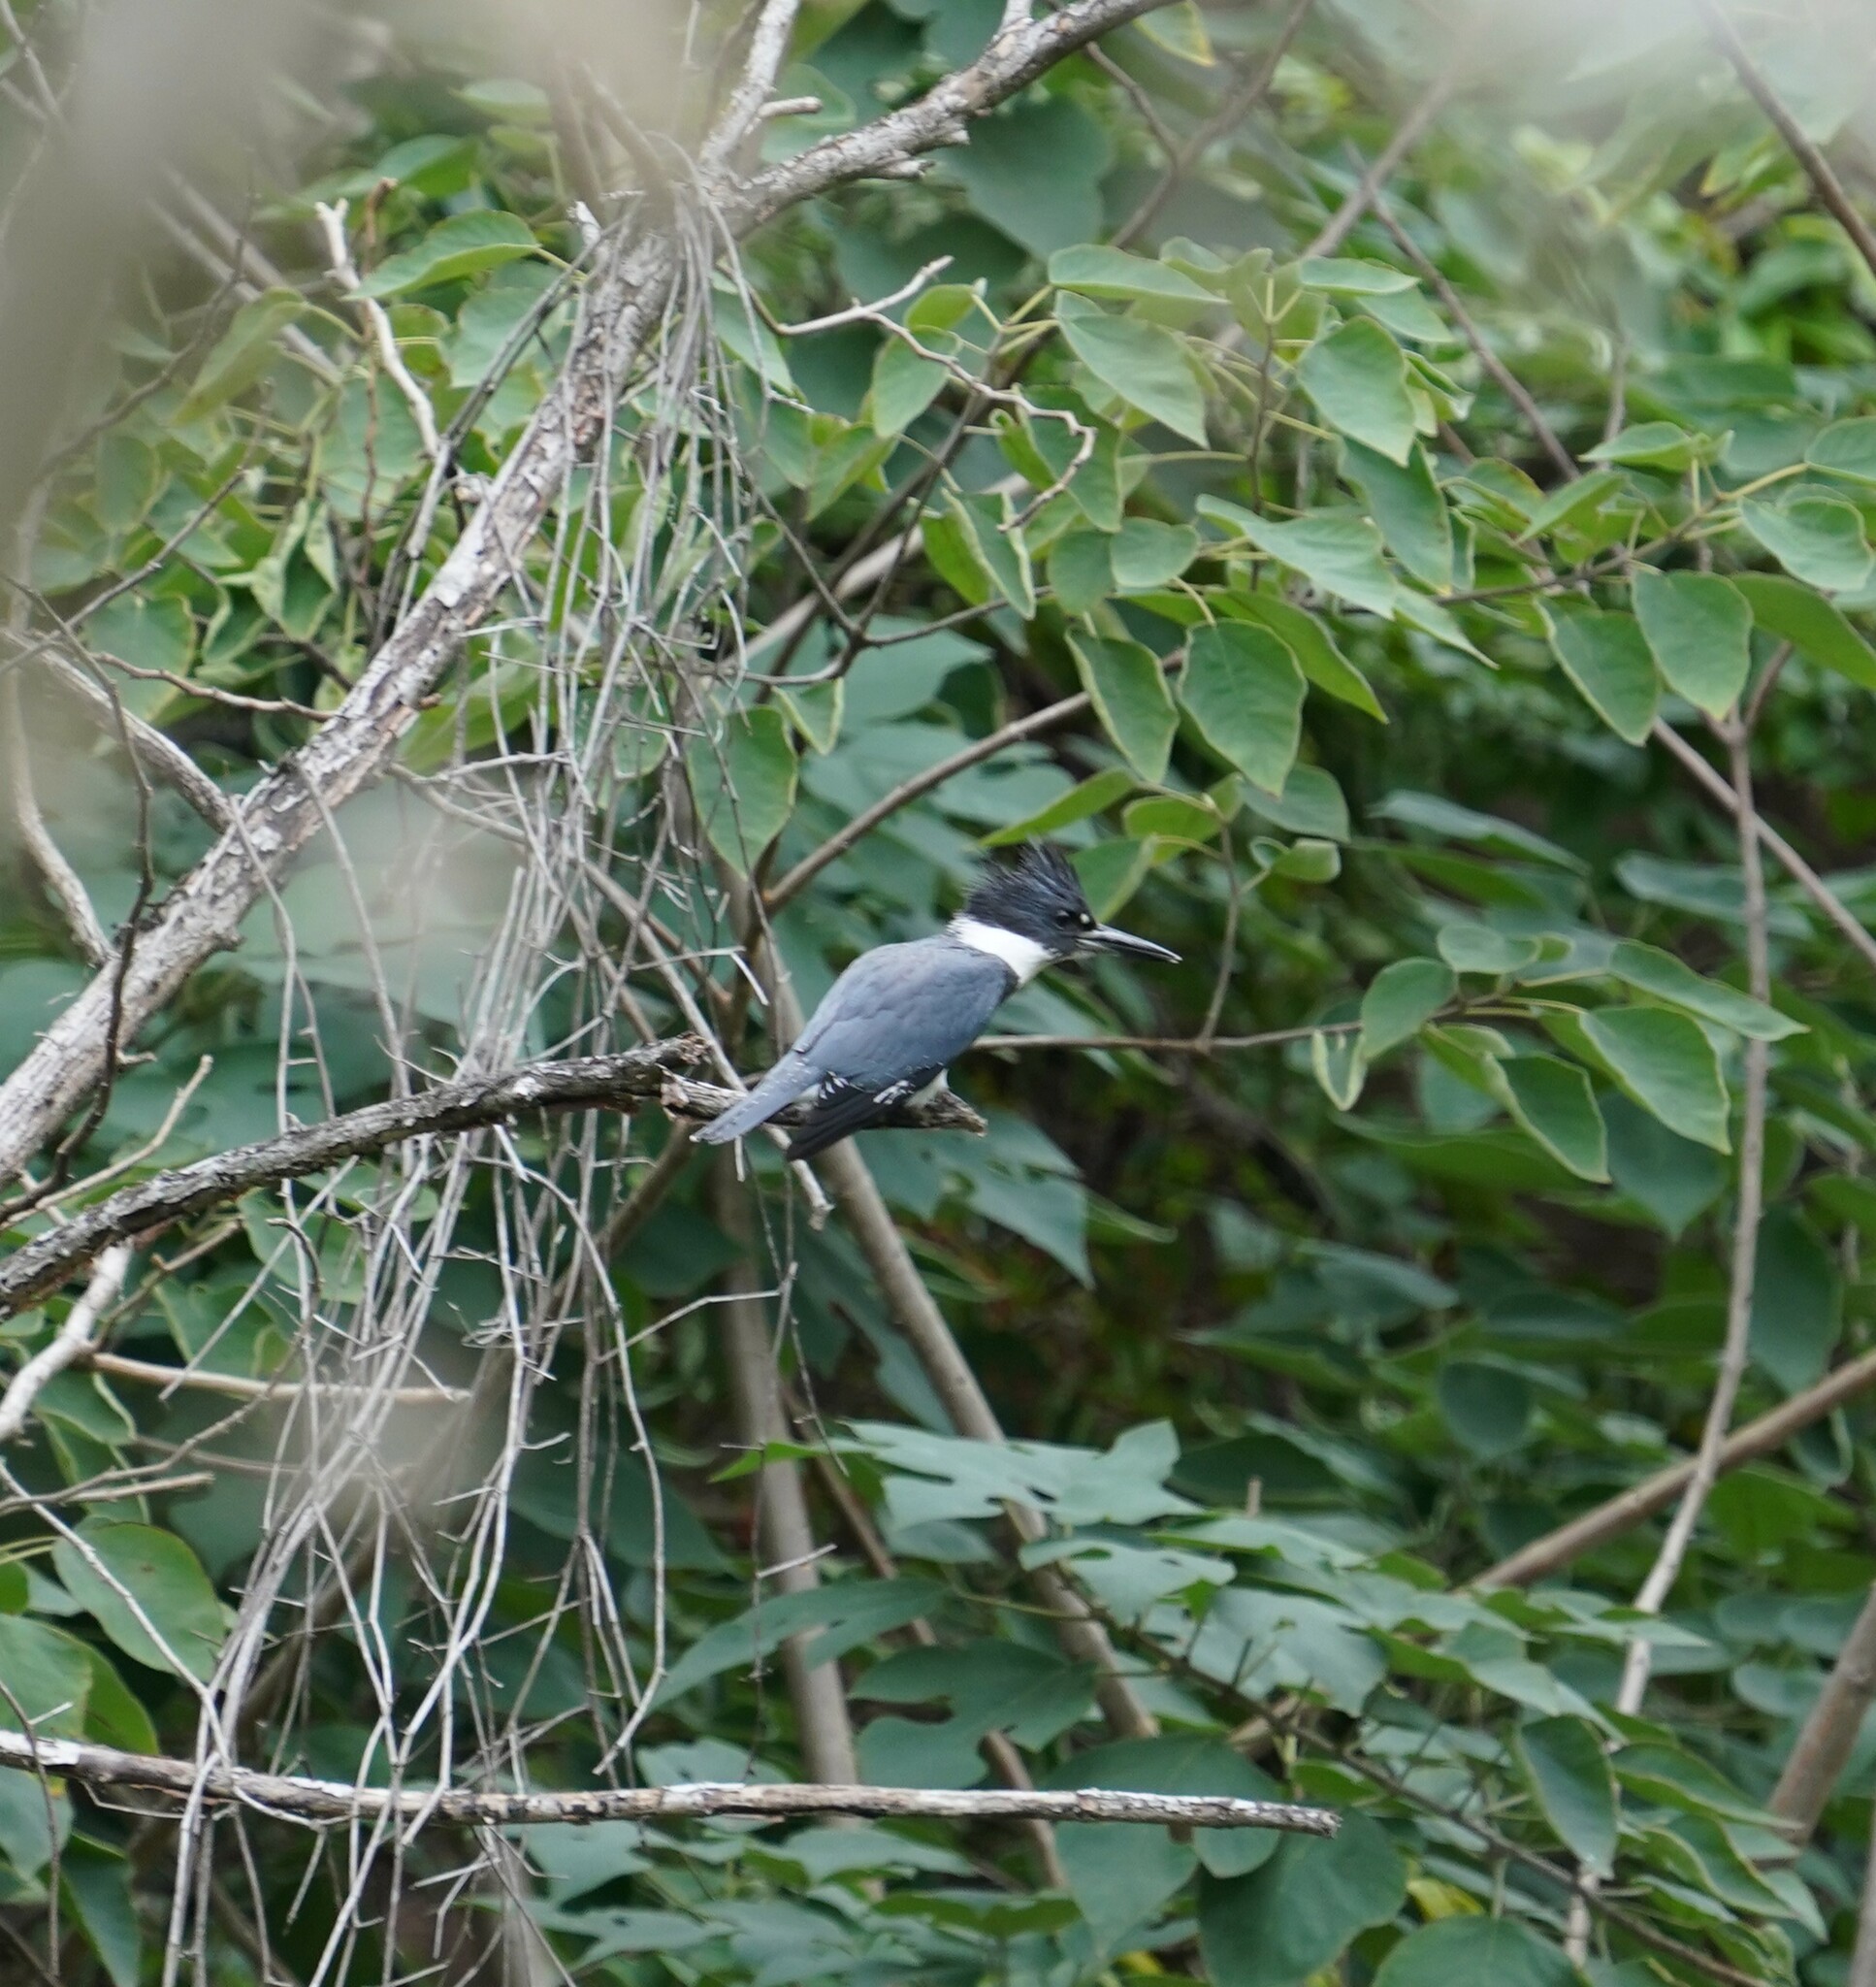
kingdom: Animalia
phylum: Chordata
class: Aves
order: Coraciiformes
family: Alcedinidae
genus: Megaceryle
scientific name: Megaceryle alcyon
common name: Belted kingfisher
